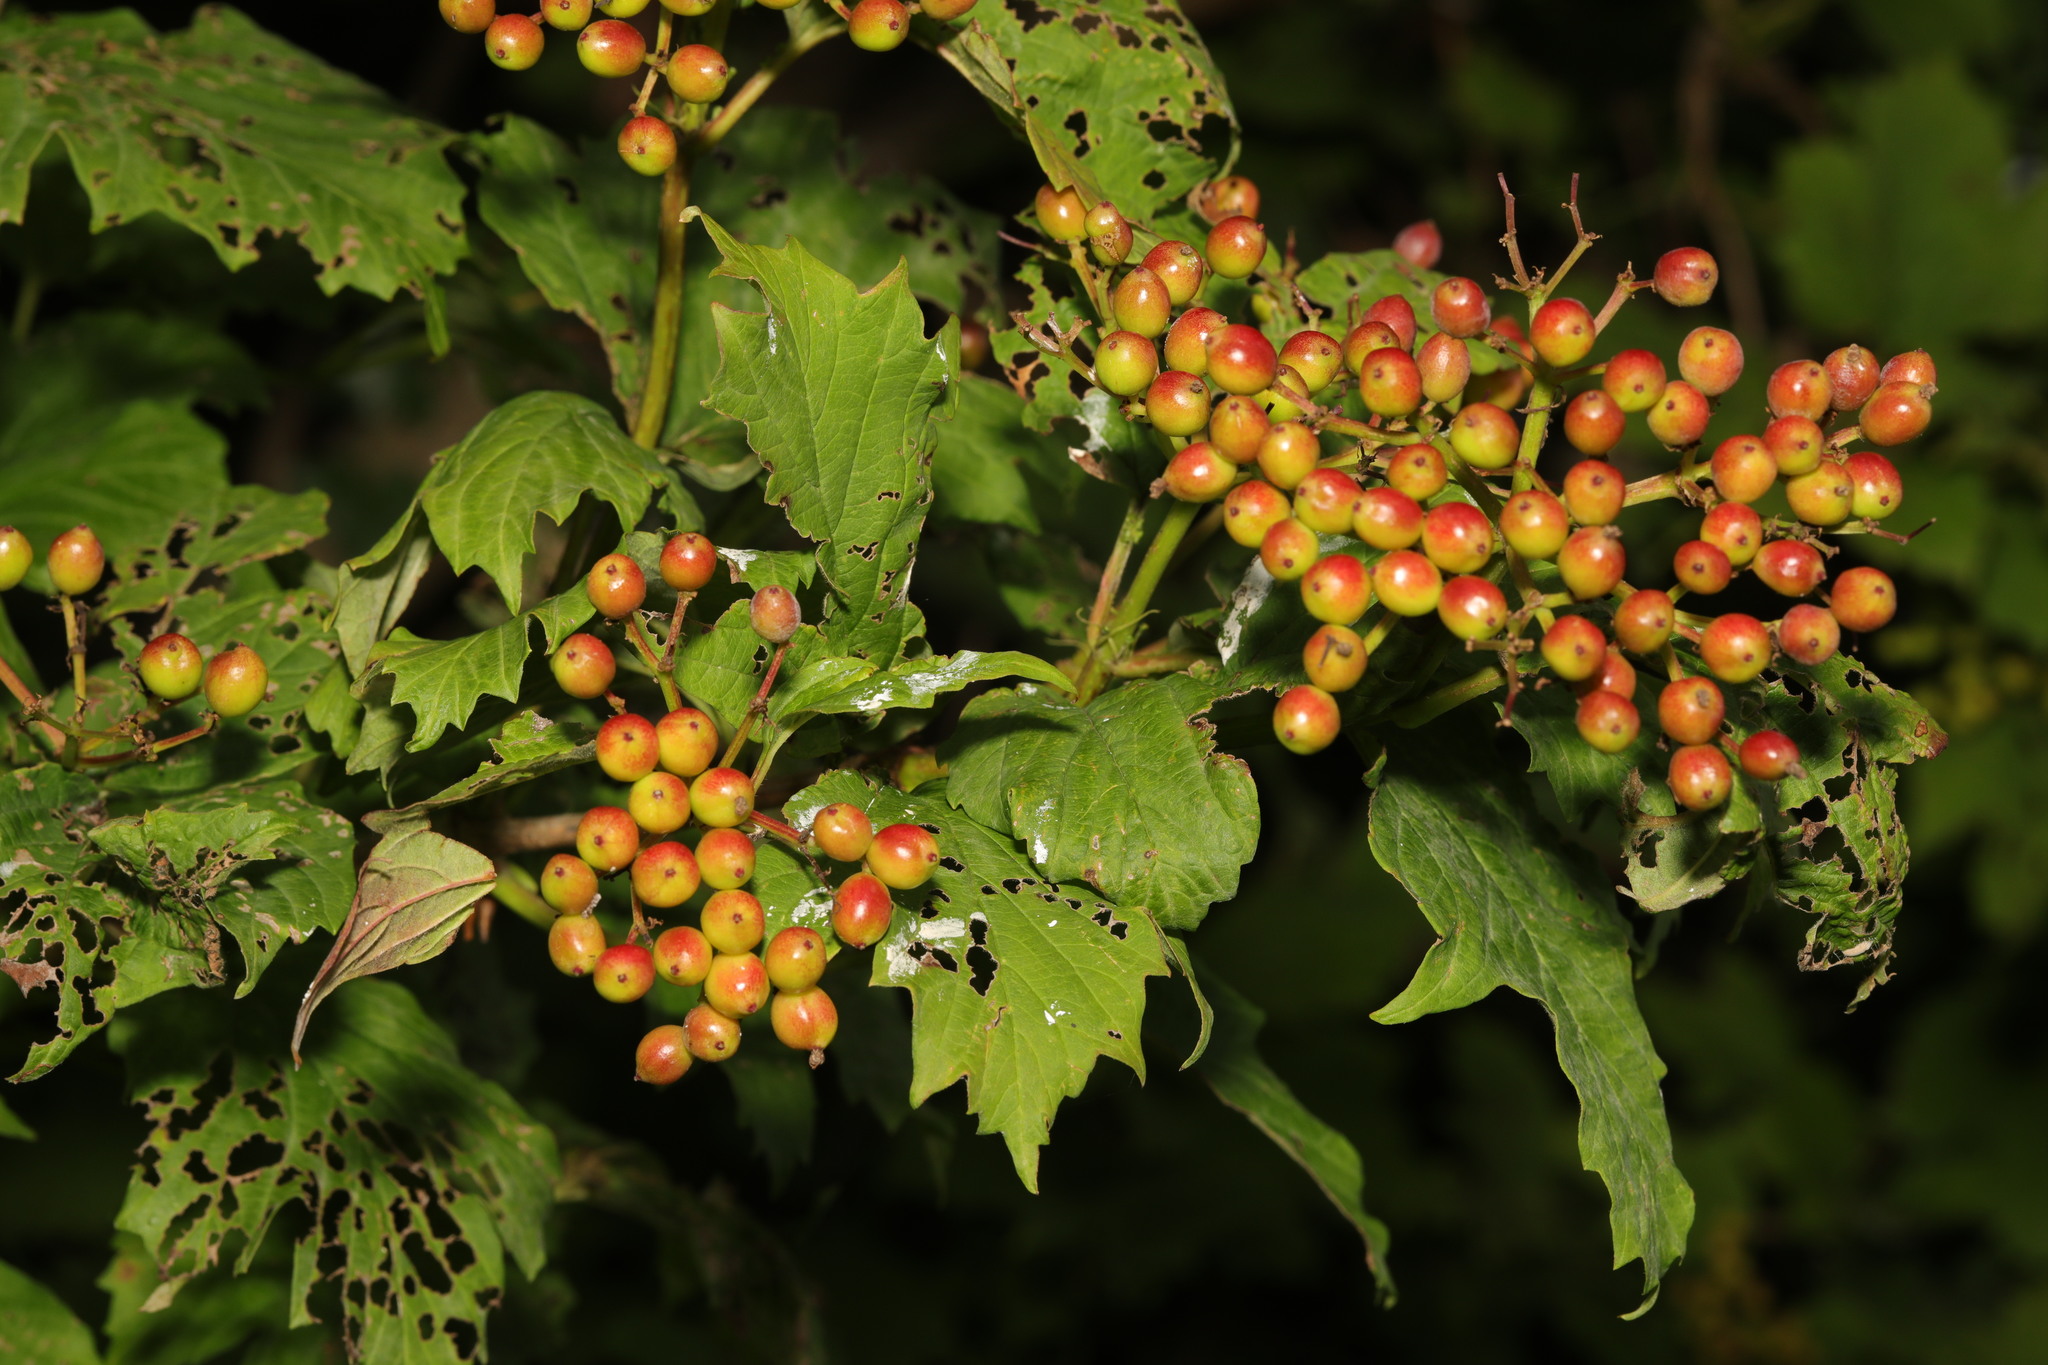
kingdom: Plantae
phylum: Tracheophyta
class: Magnoliopsida
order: Dipsacales
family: Viburnaceae
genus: Viburnum
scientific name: Viburnum opulus
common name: Guelder-rose
